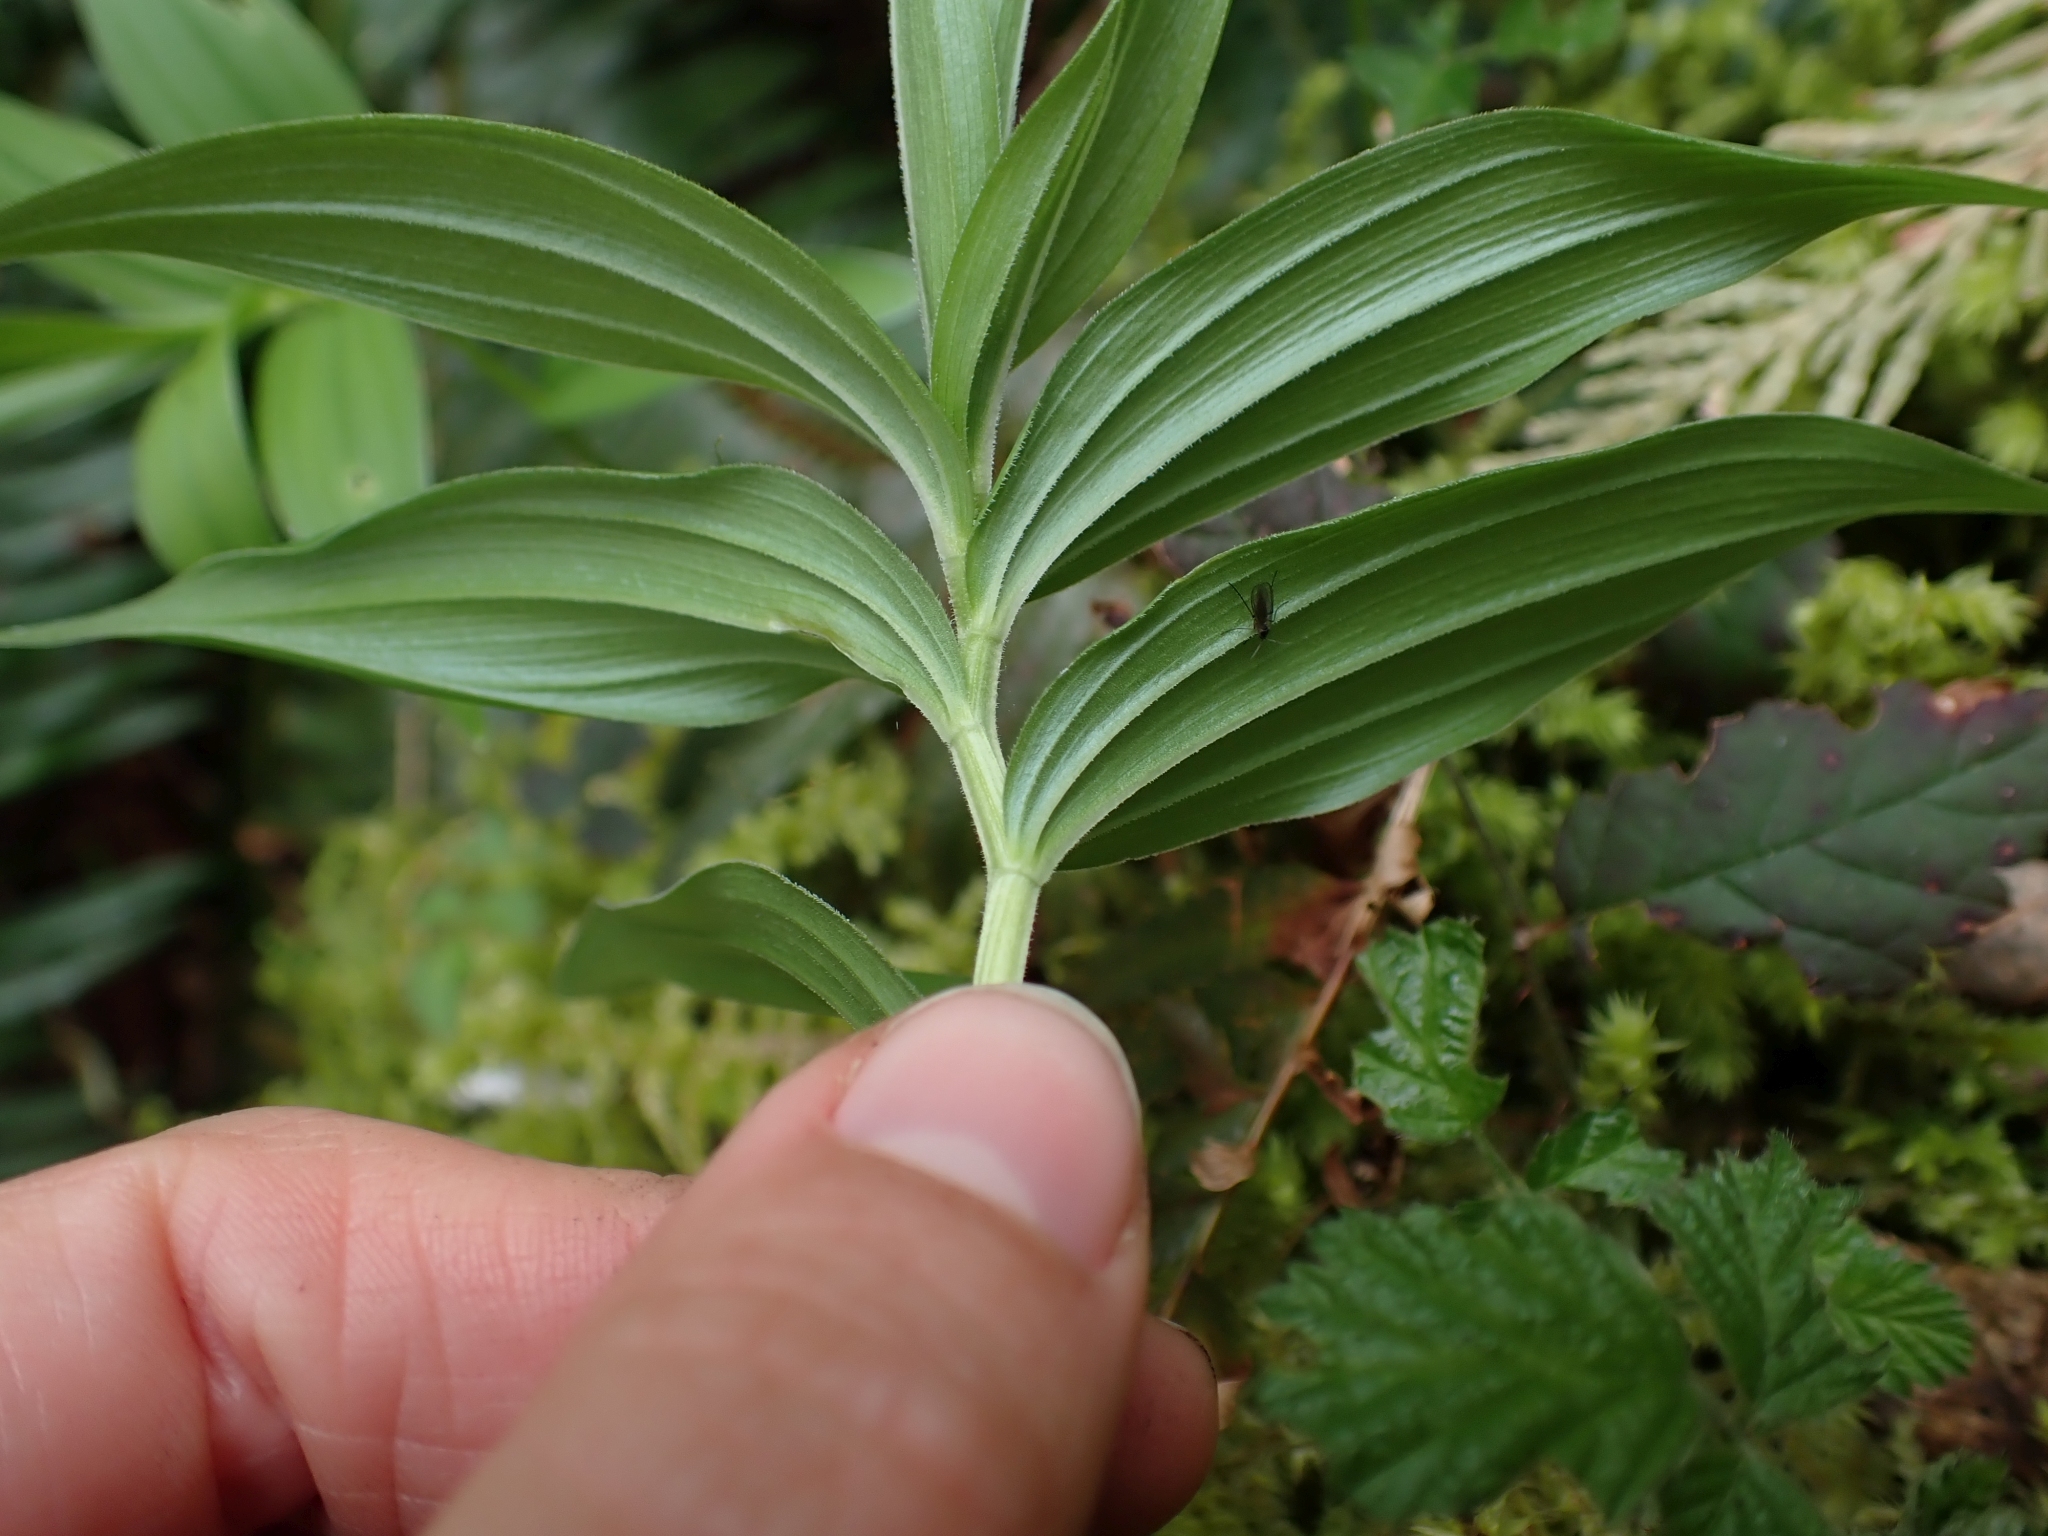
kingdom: Plantae
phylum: Tracheophyta
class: Liliopsida
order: Asparagales
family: Asparagaceae
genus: Maianthemum
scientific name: Maianthemum stellatum
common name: Little false solomon's seal
